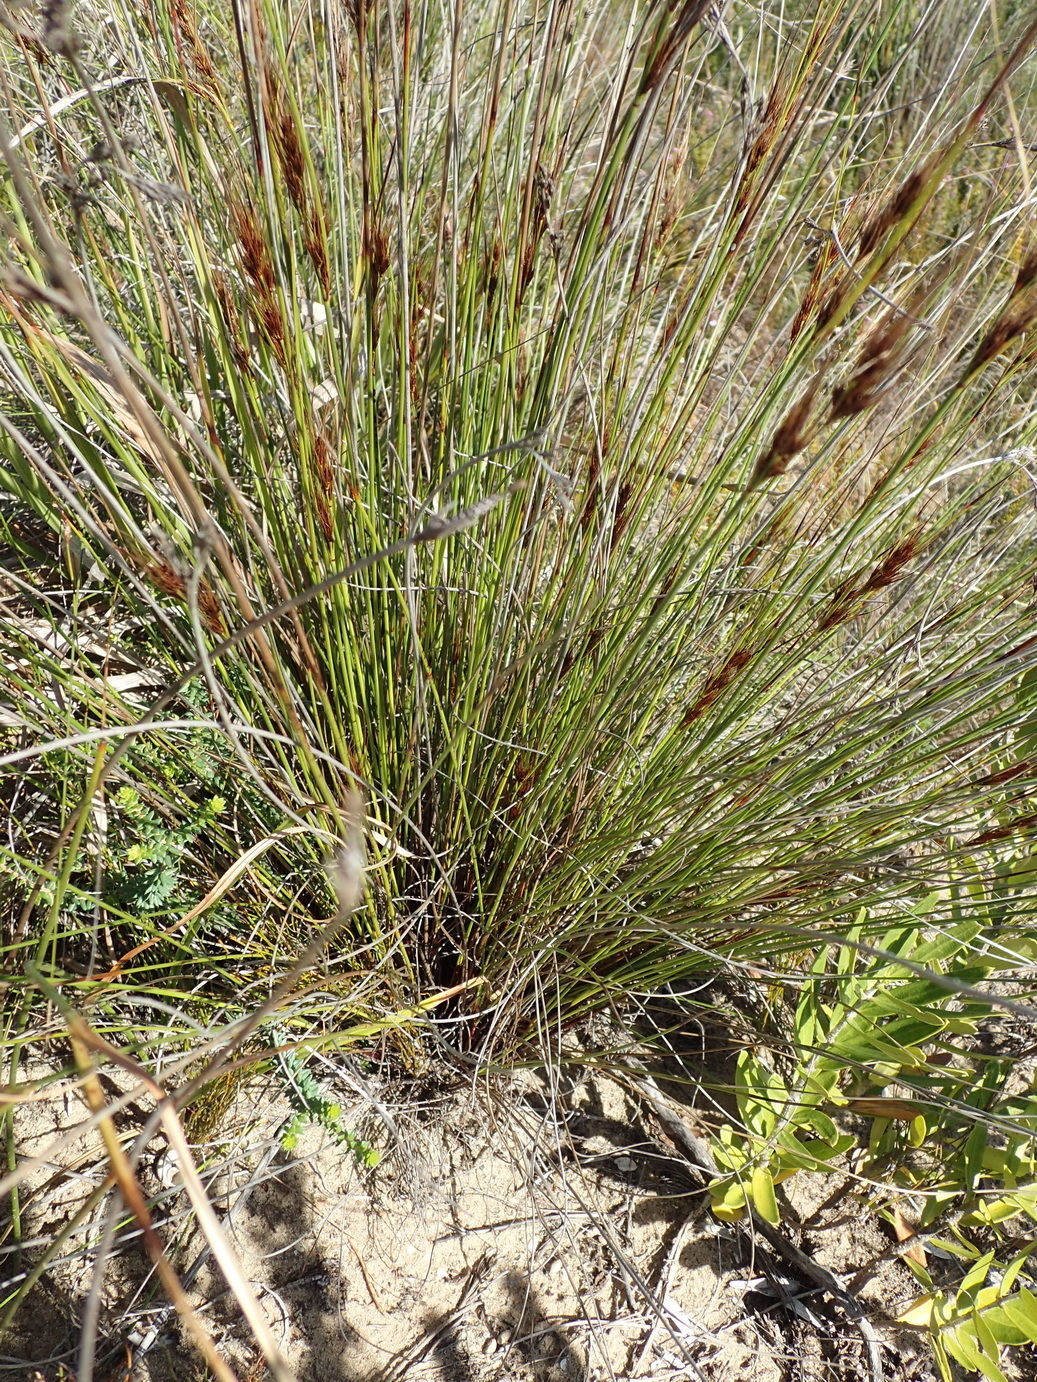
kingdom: Plantae
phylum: Tracheophyta
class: Liliopsida
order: Poales
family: Cyperaceae
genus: Schoenus
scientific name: Schoenus graciliculmis
